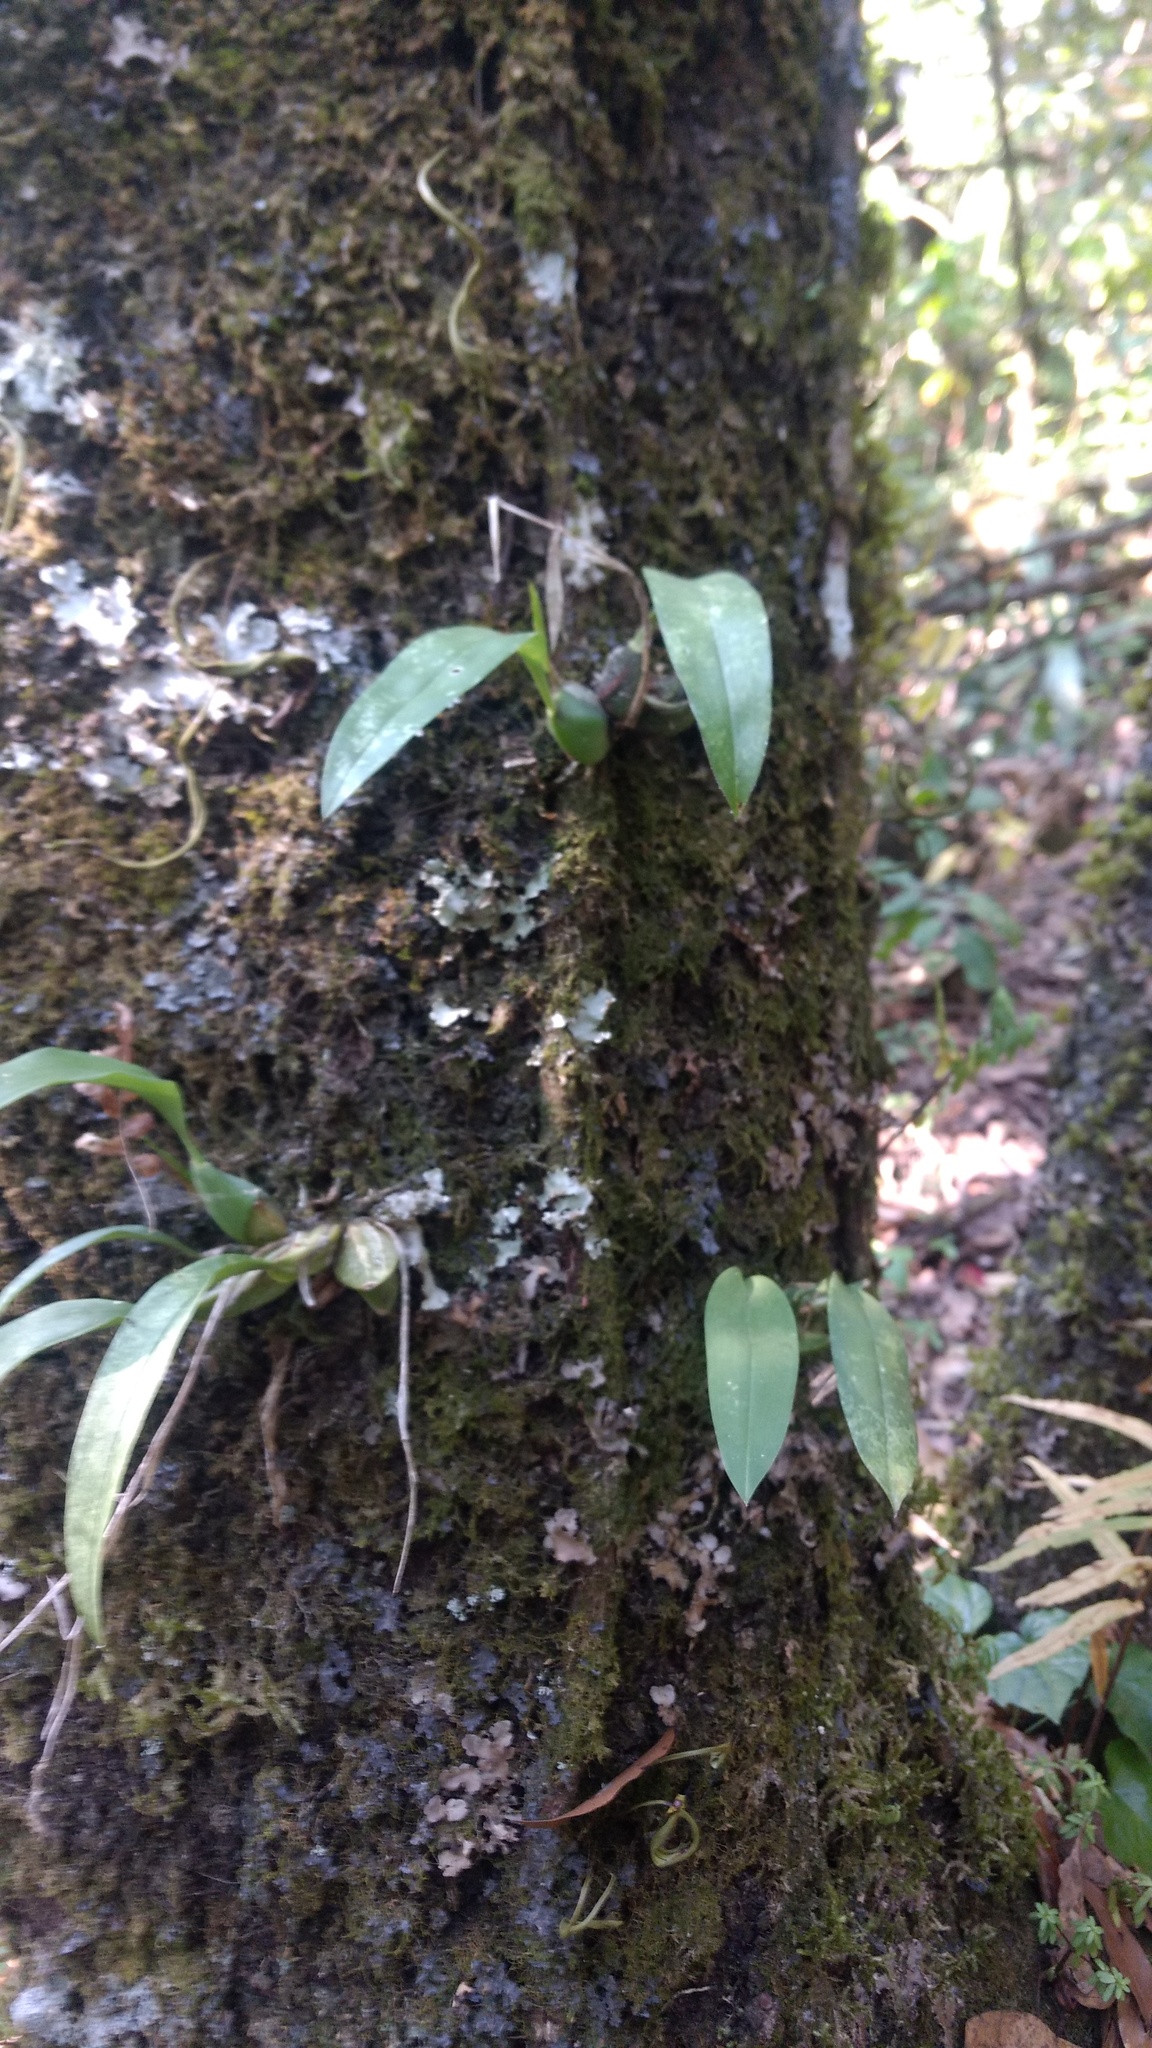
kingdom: Plantae
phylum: Tracheophyta
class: Liliopsida
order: Asparagales
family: Orchidaceae
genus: Rhynchostele
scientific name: Rhynchostele cervantesii
